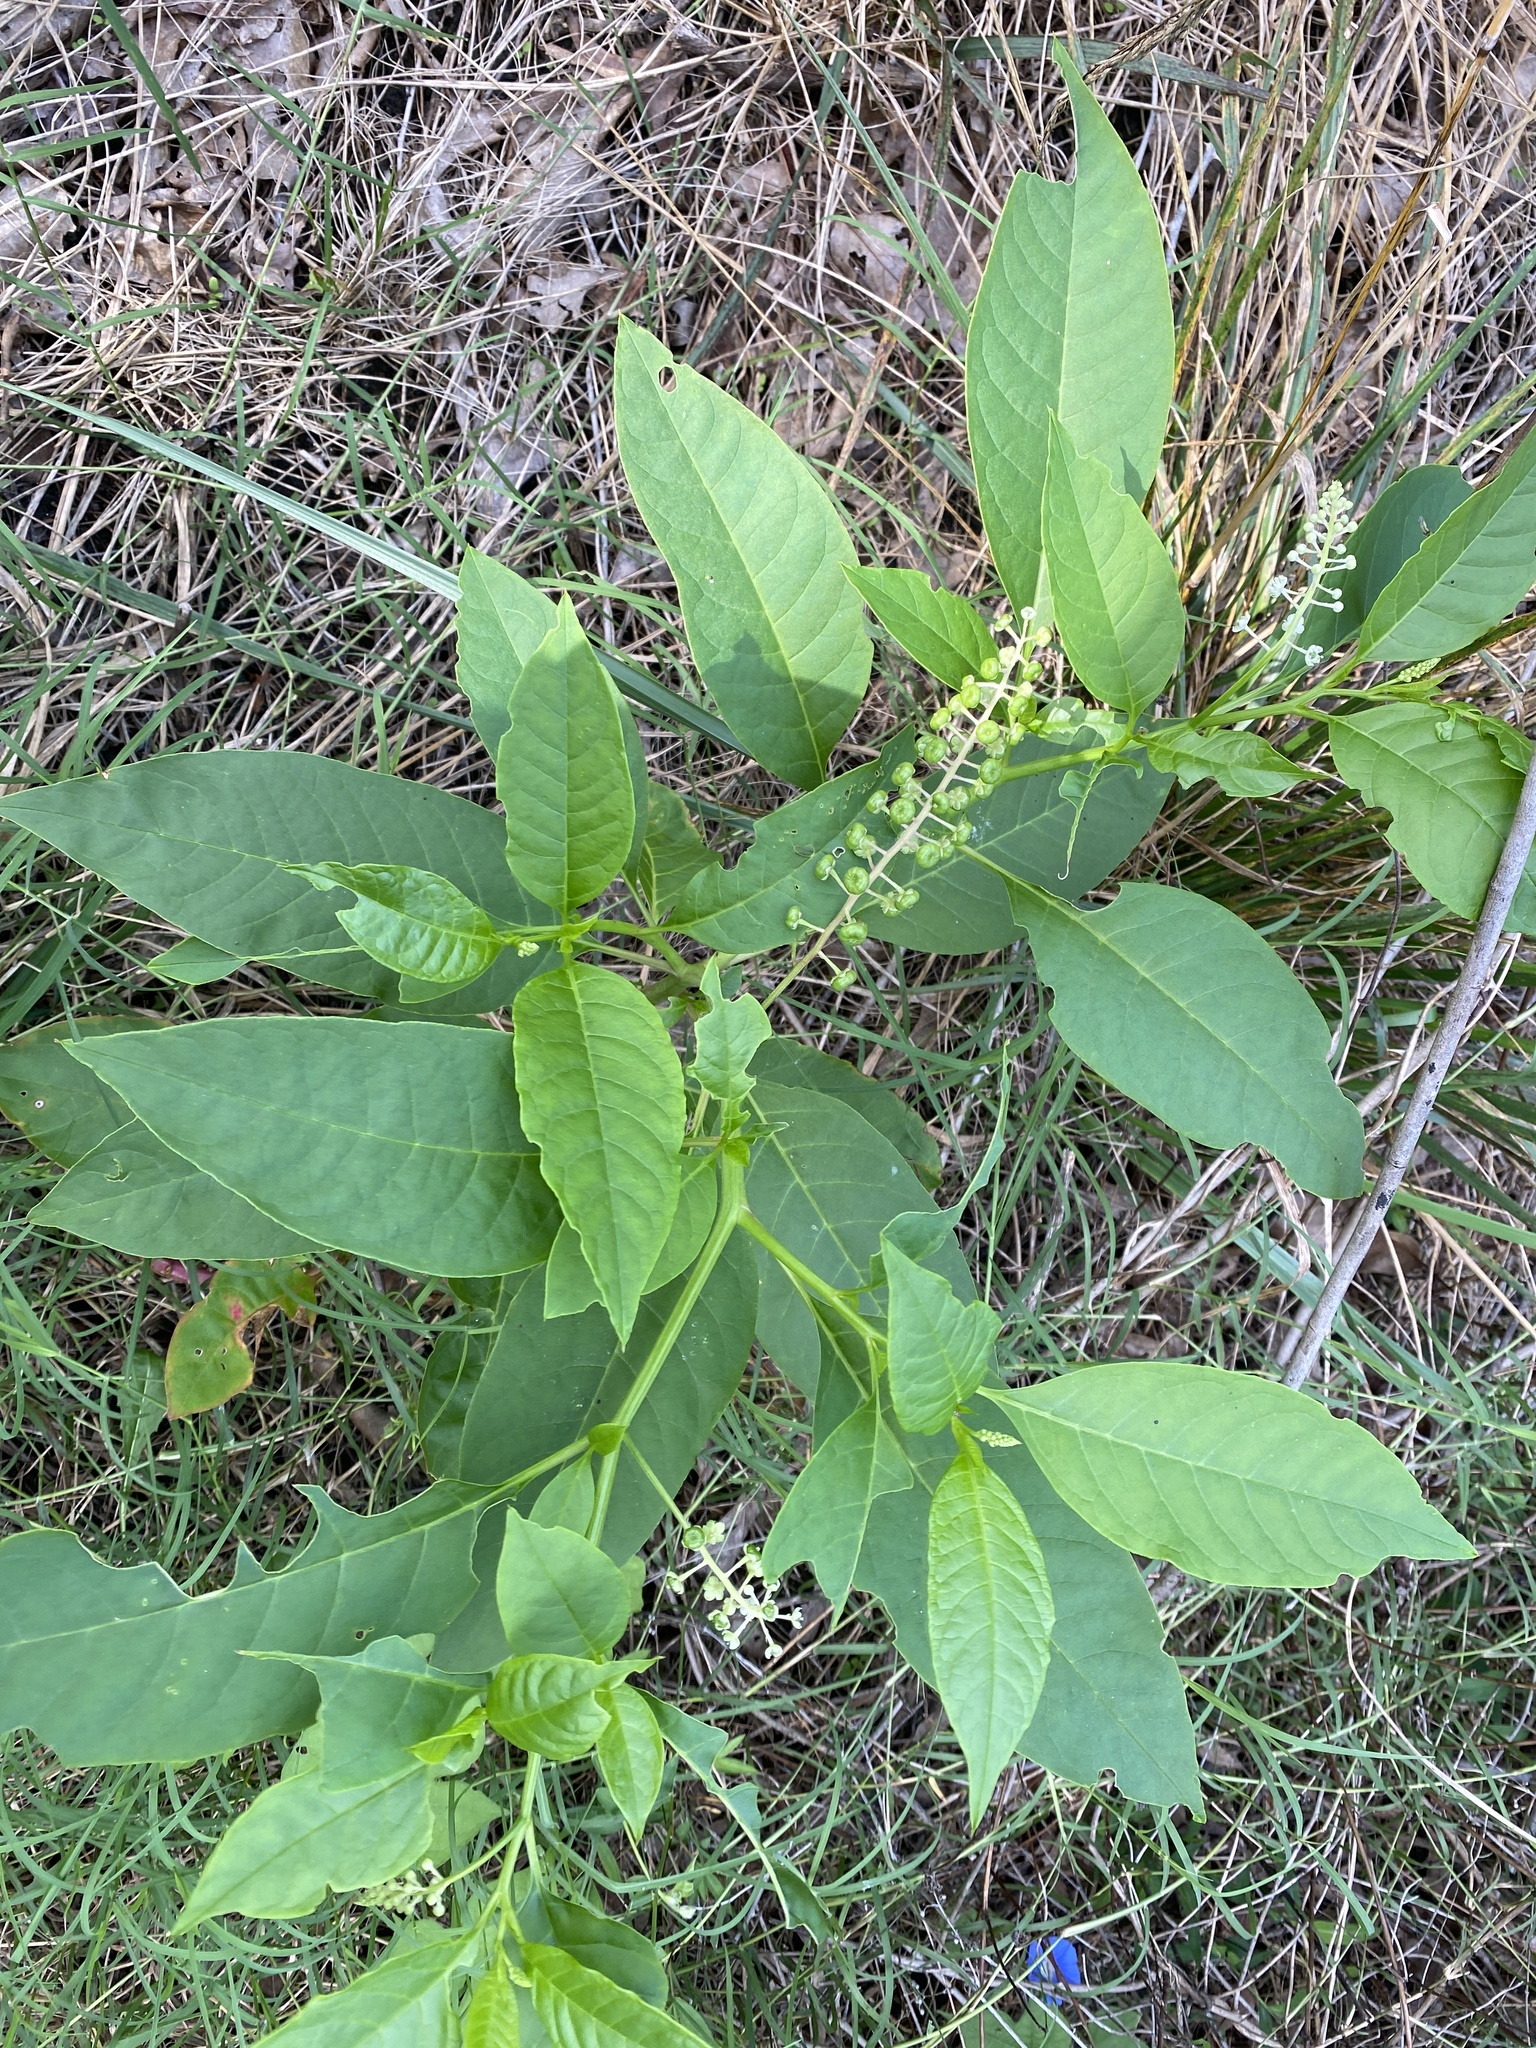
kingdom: Plantae
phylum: Tracheophyta
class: Magnoliopsida
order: Caryophyllales
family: Phytolaccaceae
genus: Phytolacca
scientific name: Phytolacca americana
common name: American pokeweed
